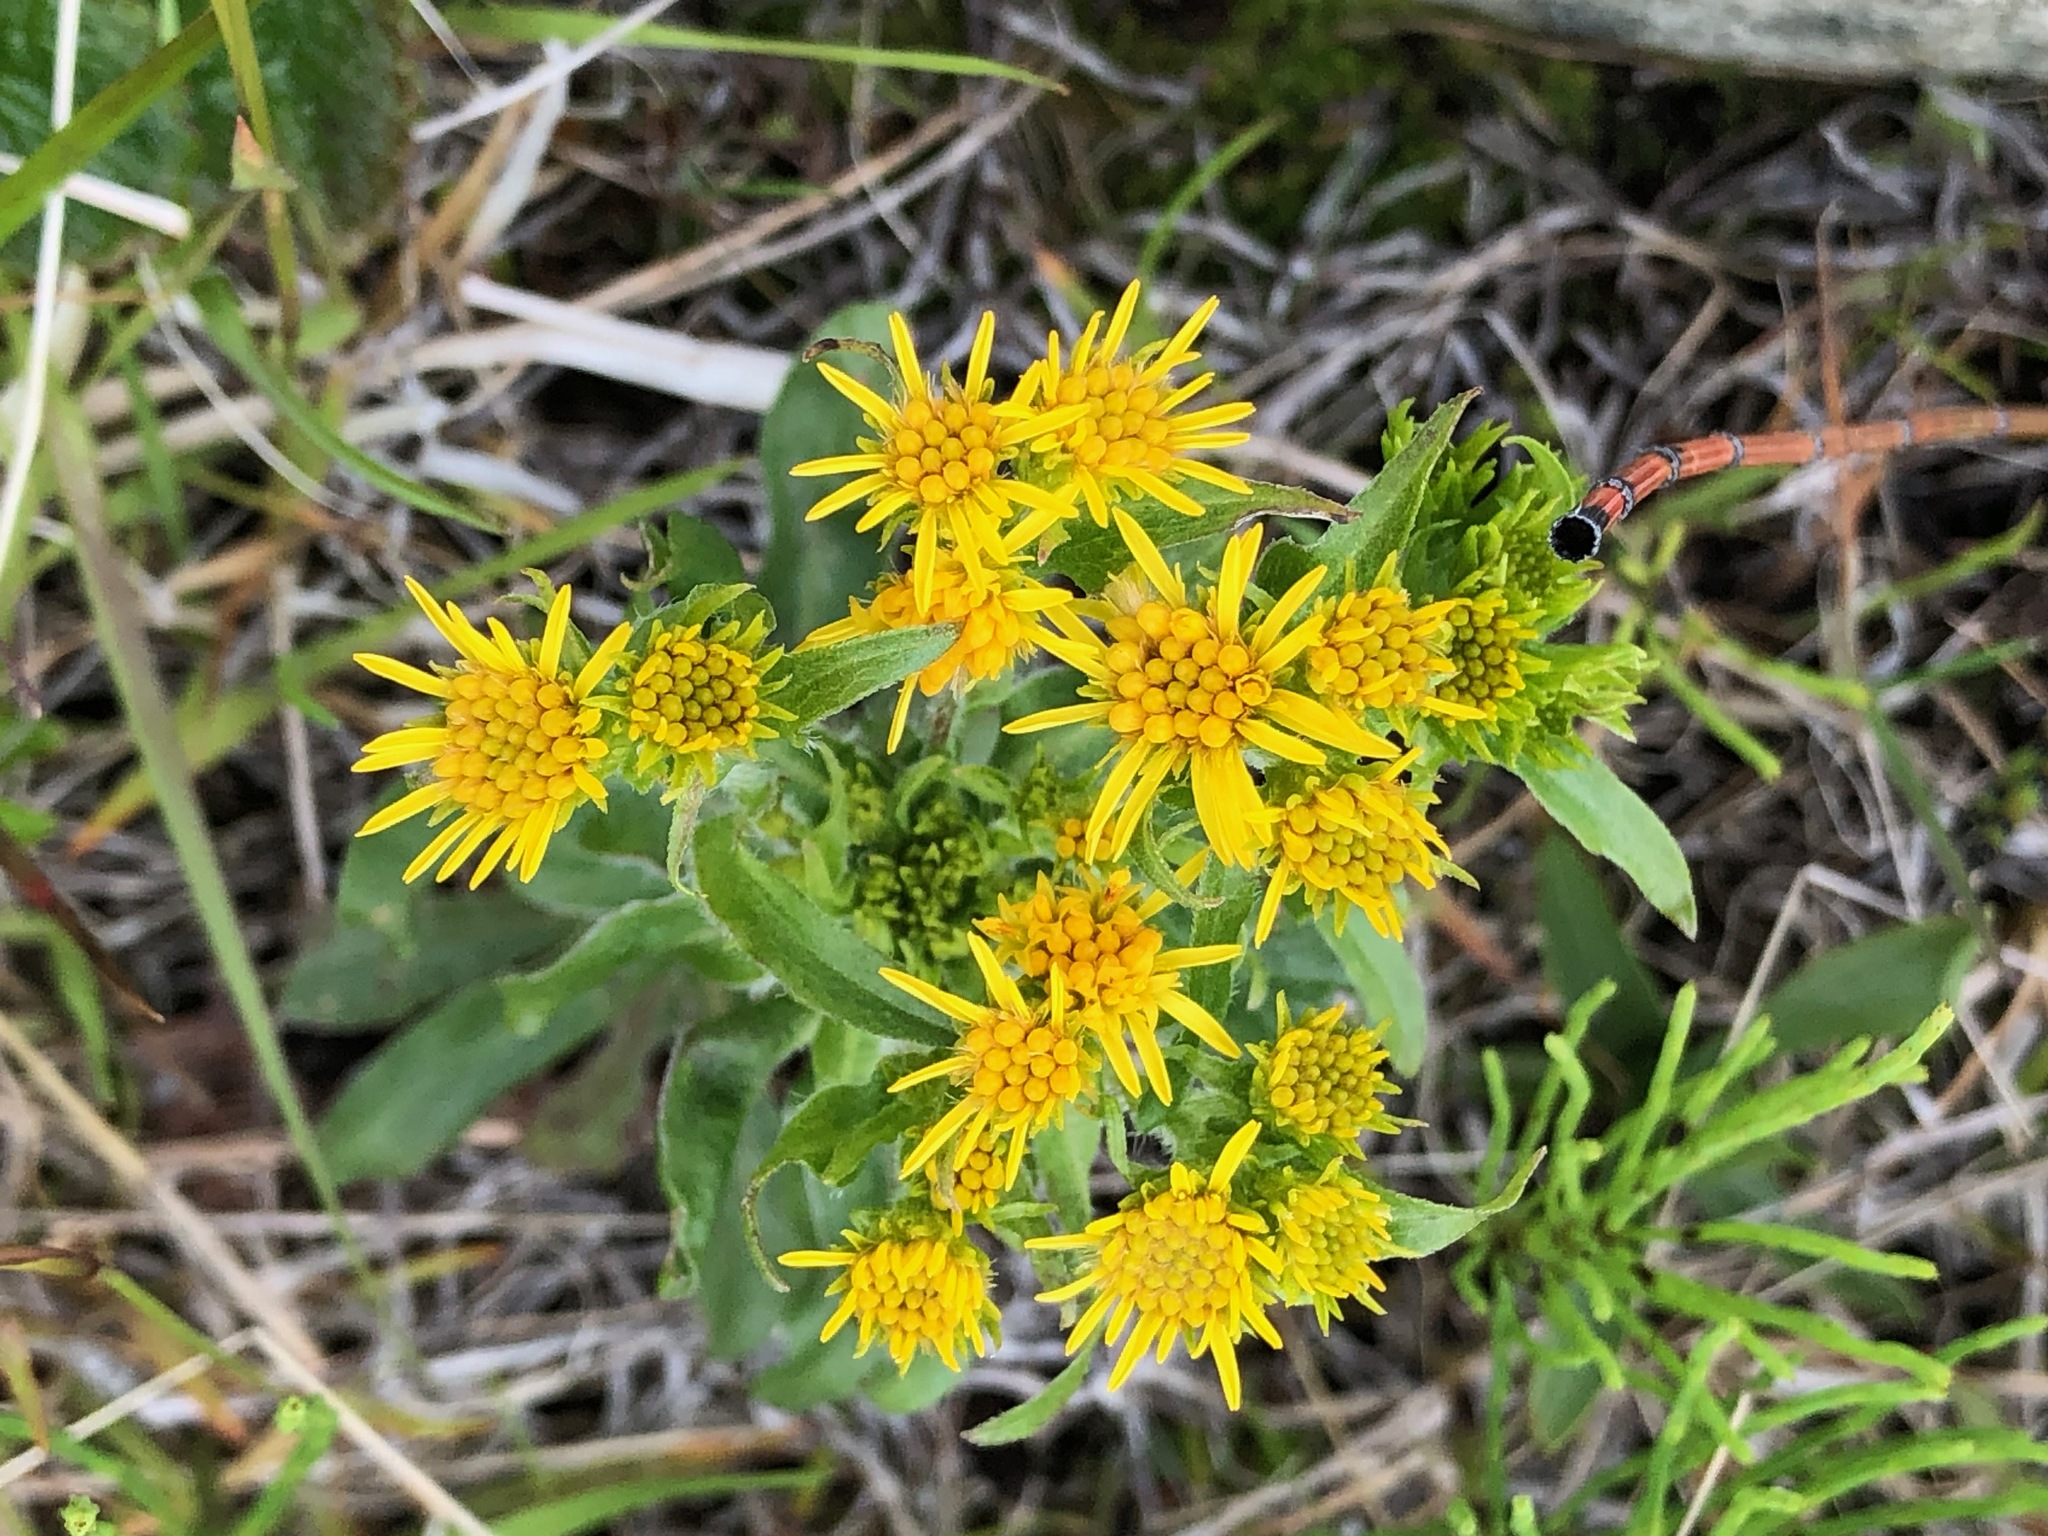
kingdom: Plantae
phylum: Tracheophyta
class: Magnoliopsida
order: Asterales
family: Asteraceae
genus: Solidago
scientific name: Solidago multiradiata
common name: Northern goldenrod
